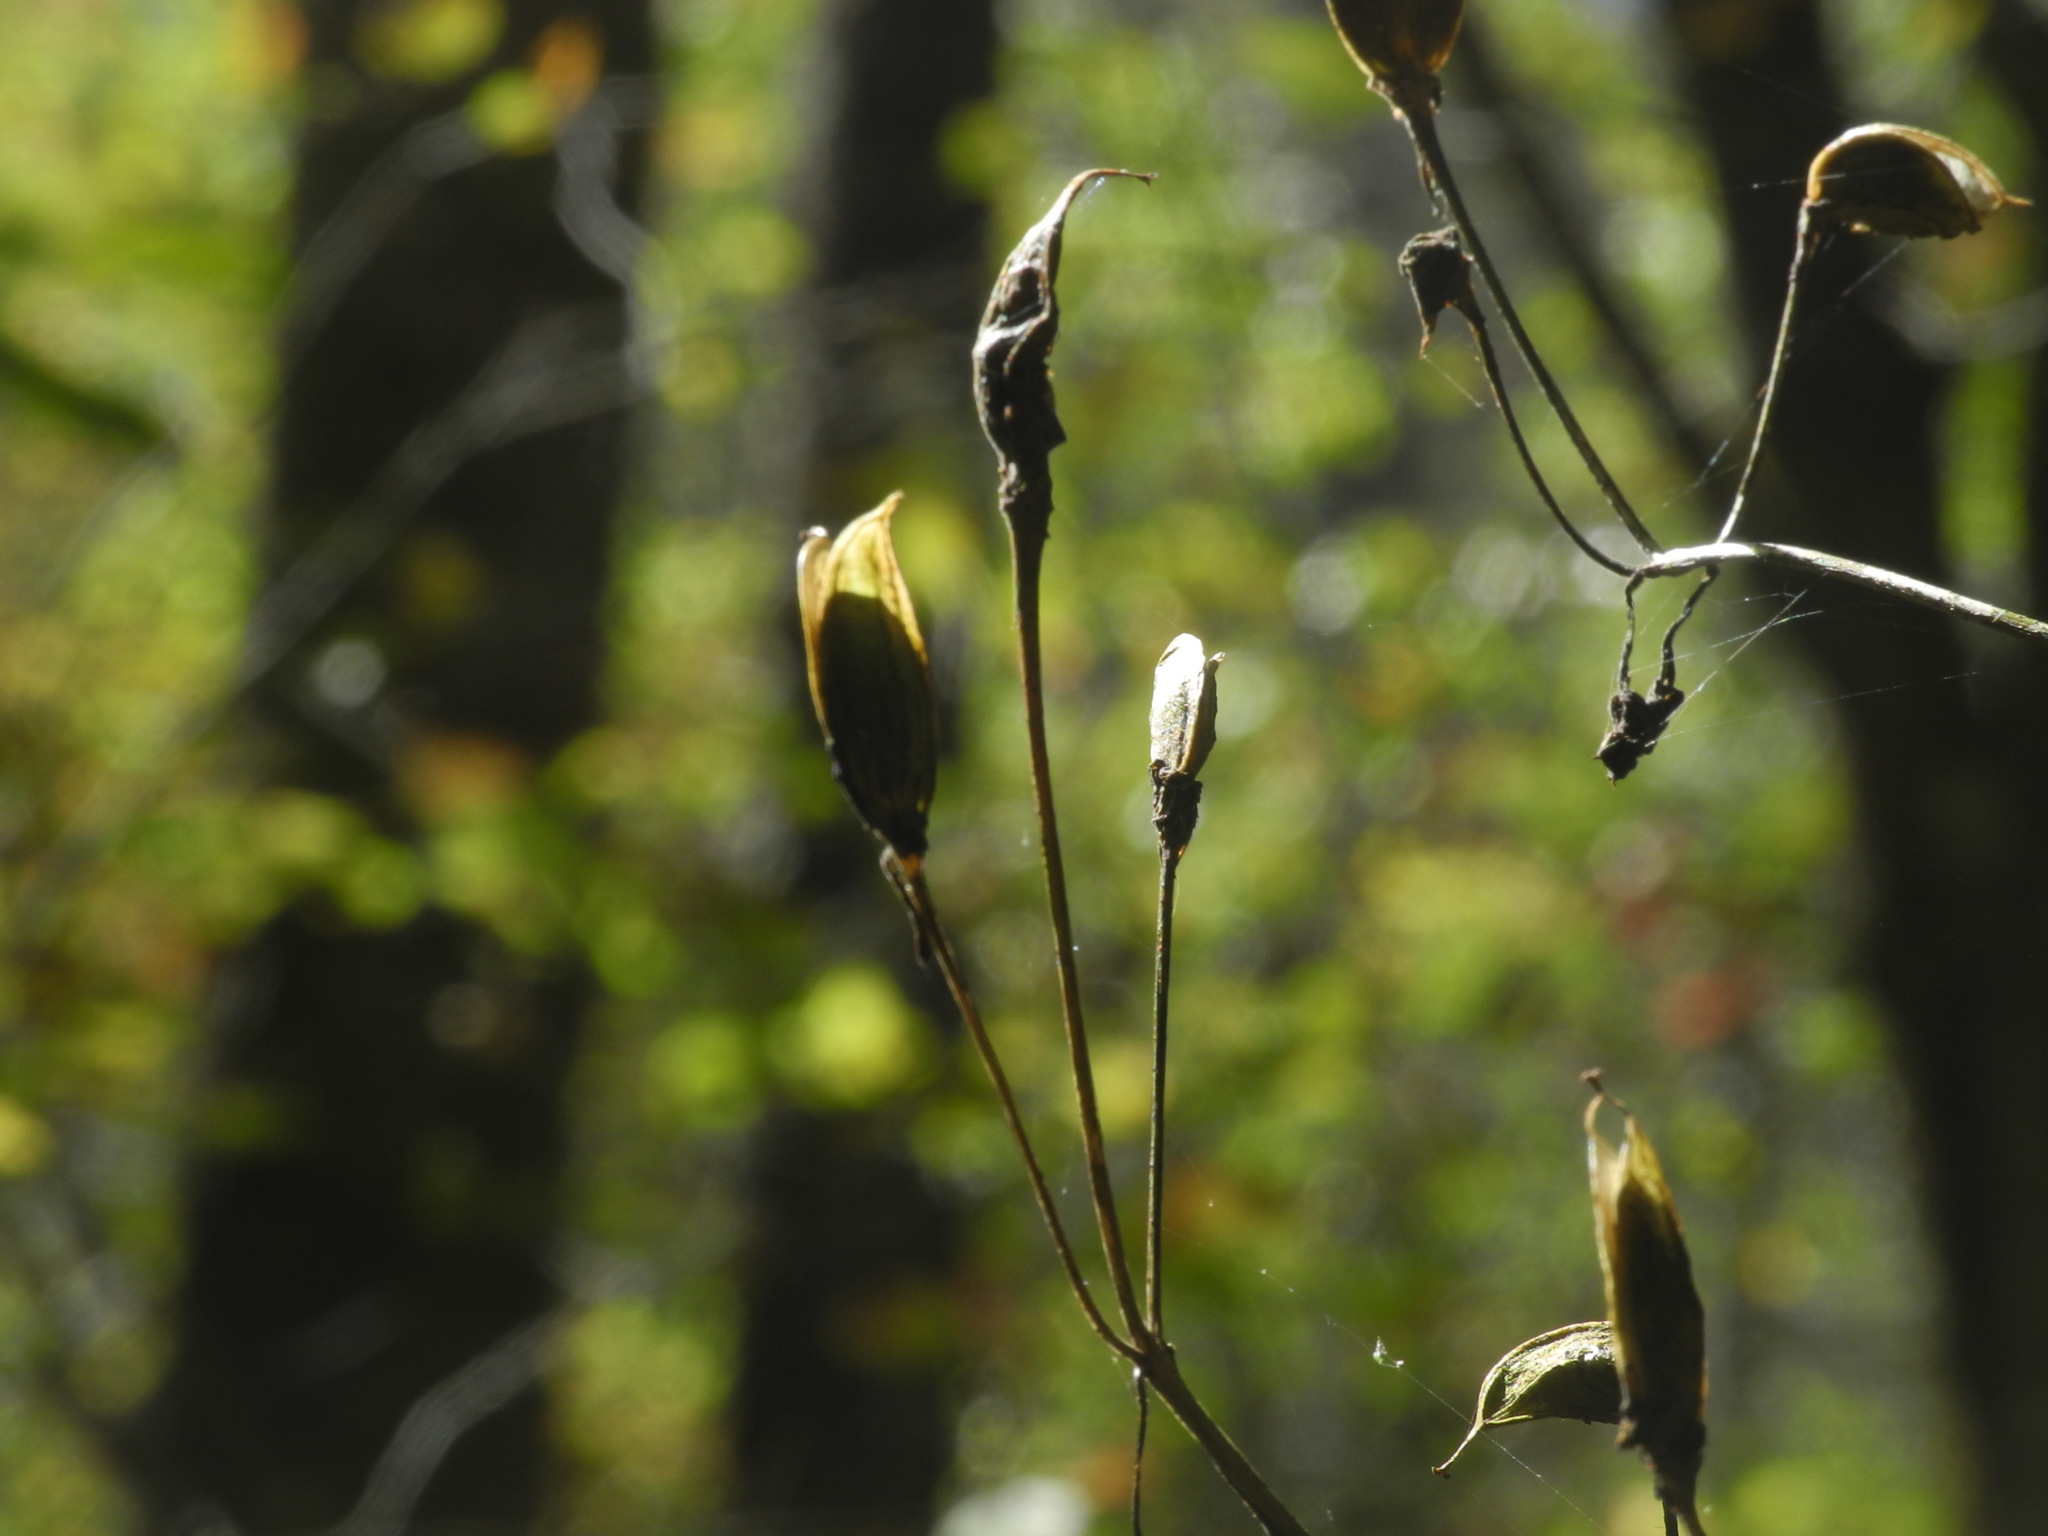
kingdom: Plantae
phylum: Tracheophyta
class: Magnoliopsida
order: Gentianales
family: Gentianaceae
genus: Frasera
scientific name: Frasera caroliniensis
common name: American columbo
